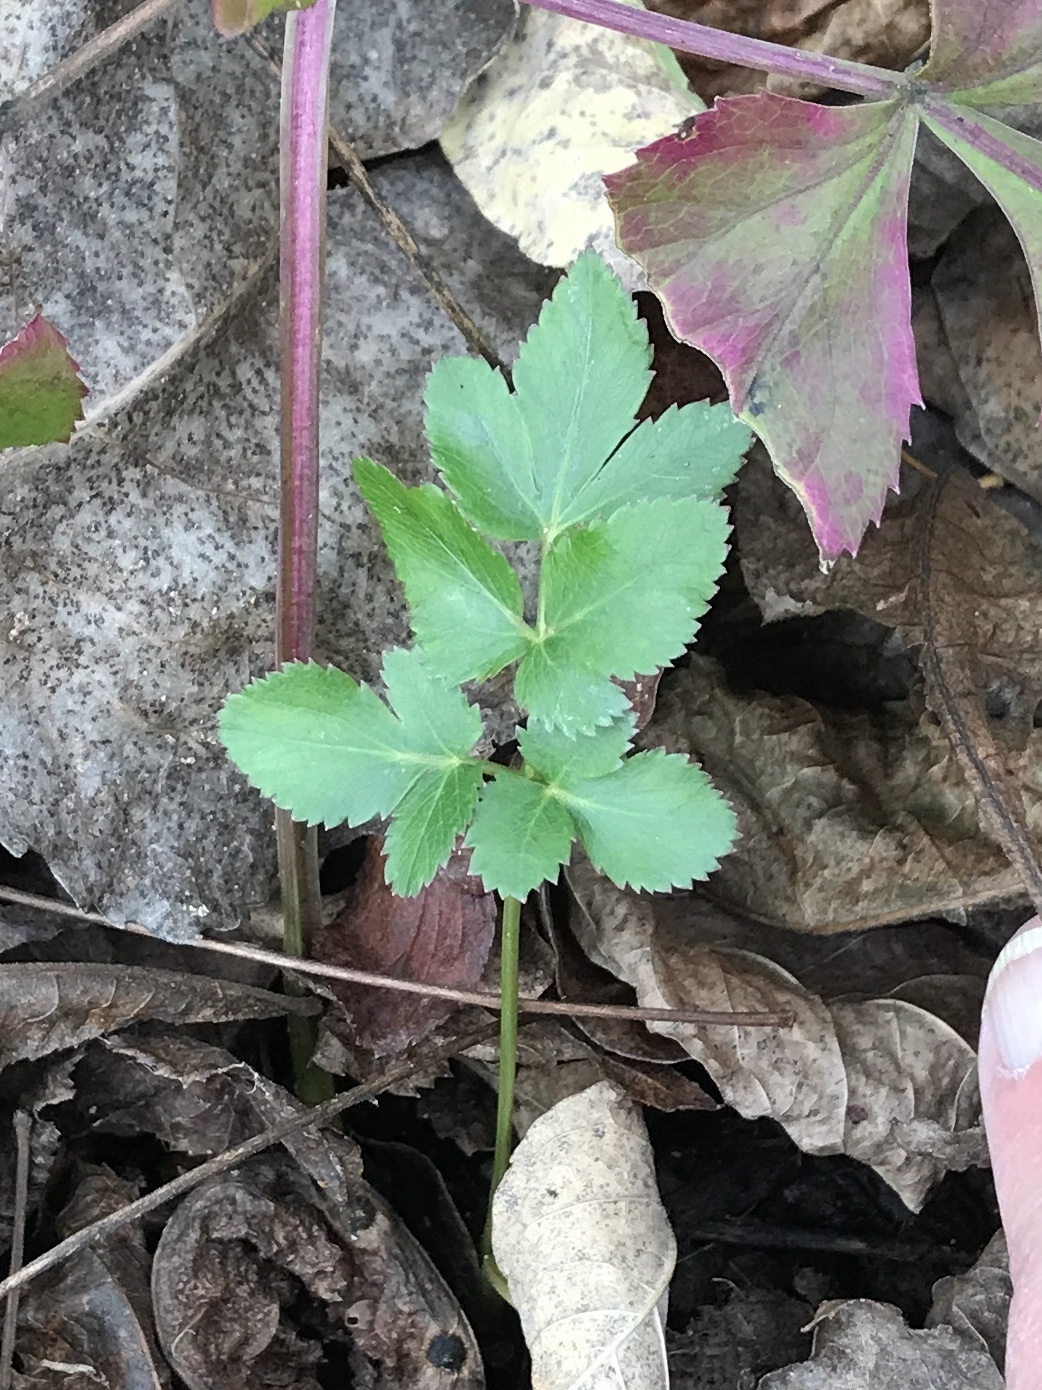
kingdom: Plantae
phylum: Tracheophyta
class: Magnoliopsida
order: Apiales
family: Apiaceae
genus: Zizia
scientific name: Zizia aurea
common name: Golden alexanders
